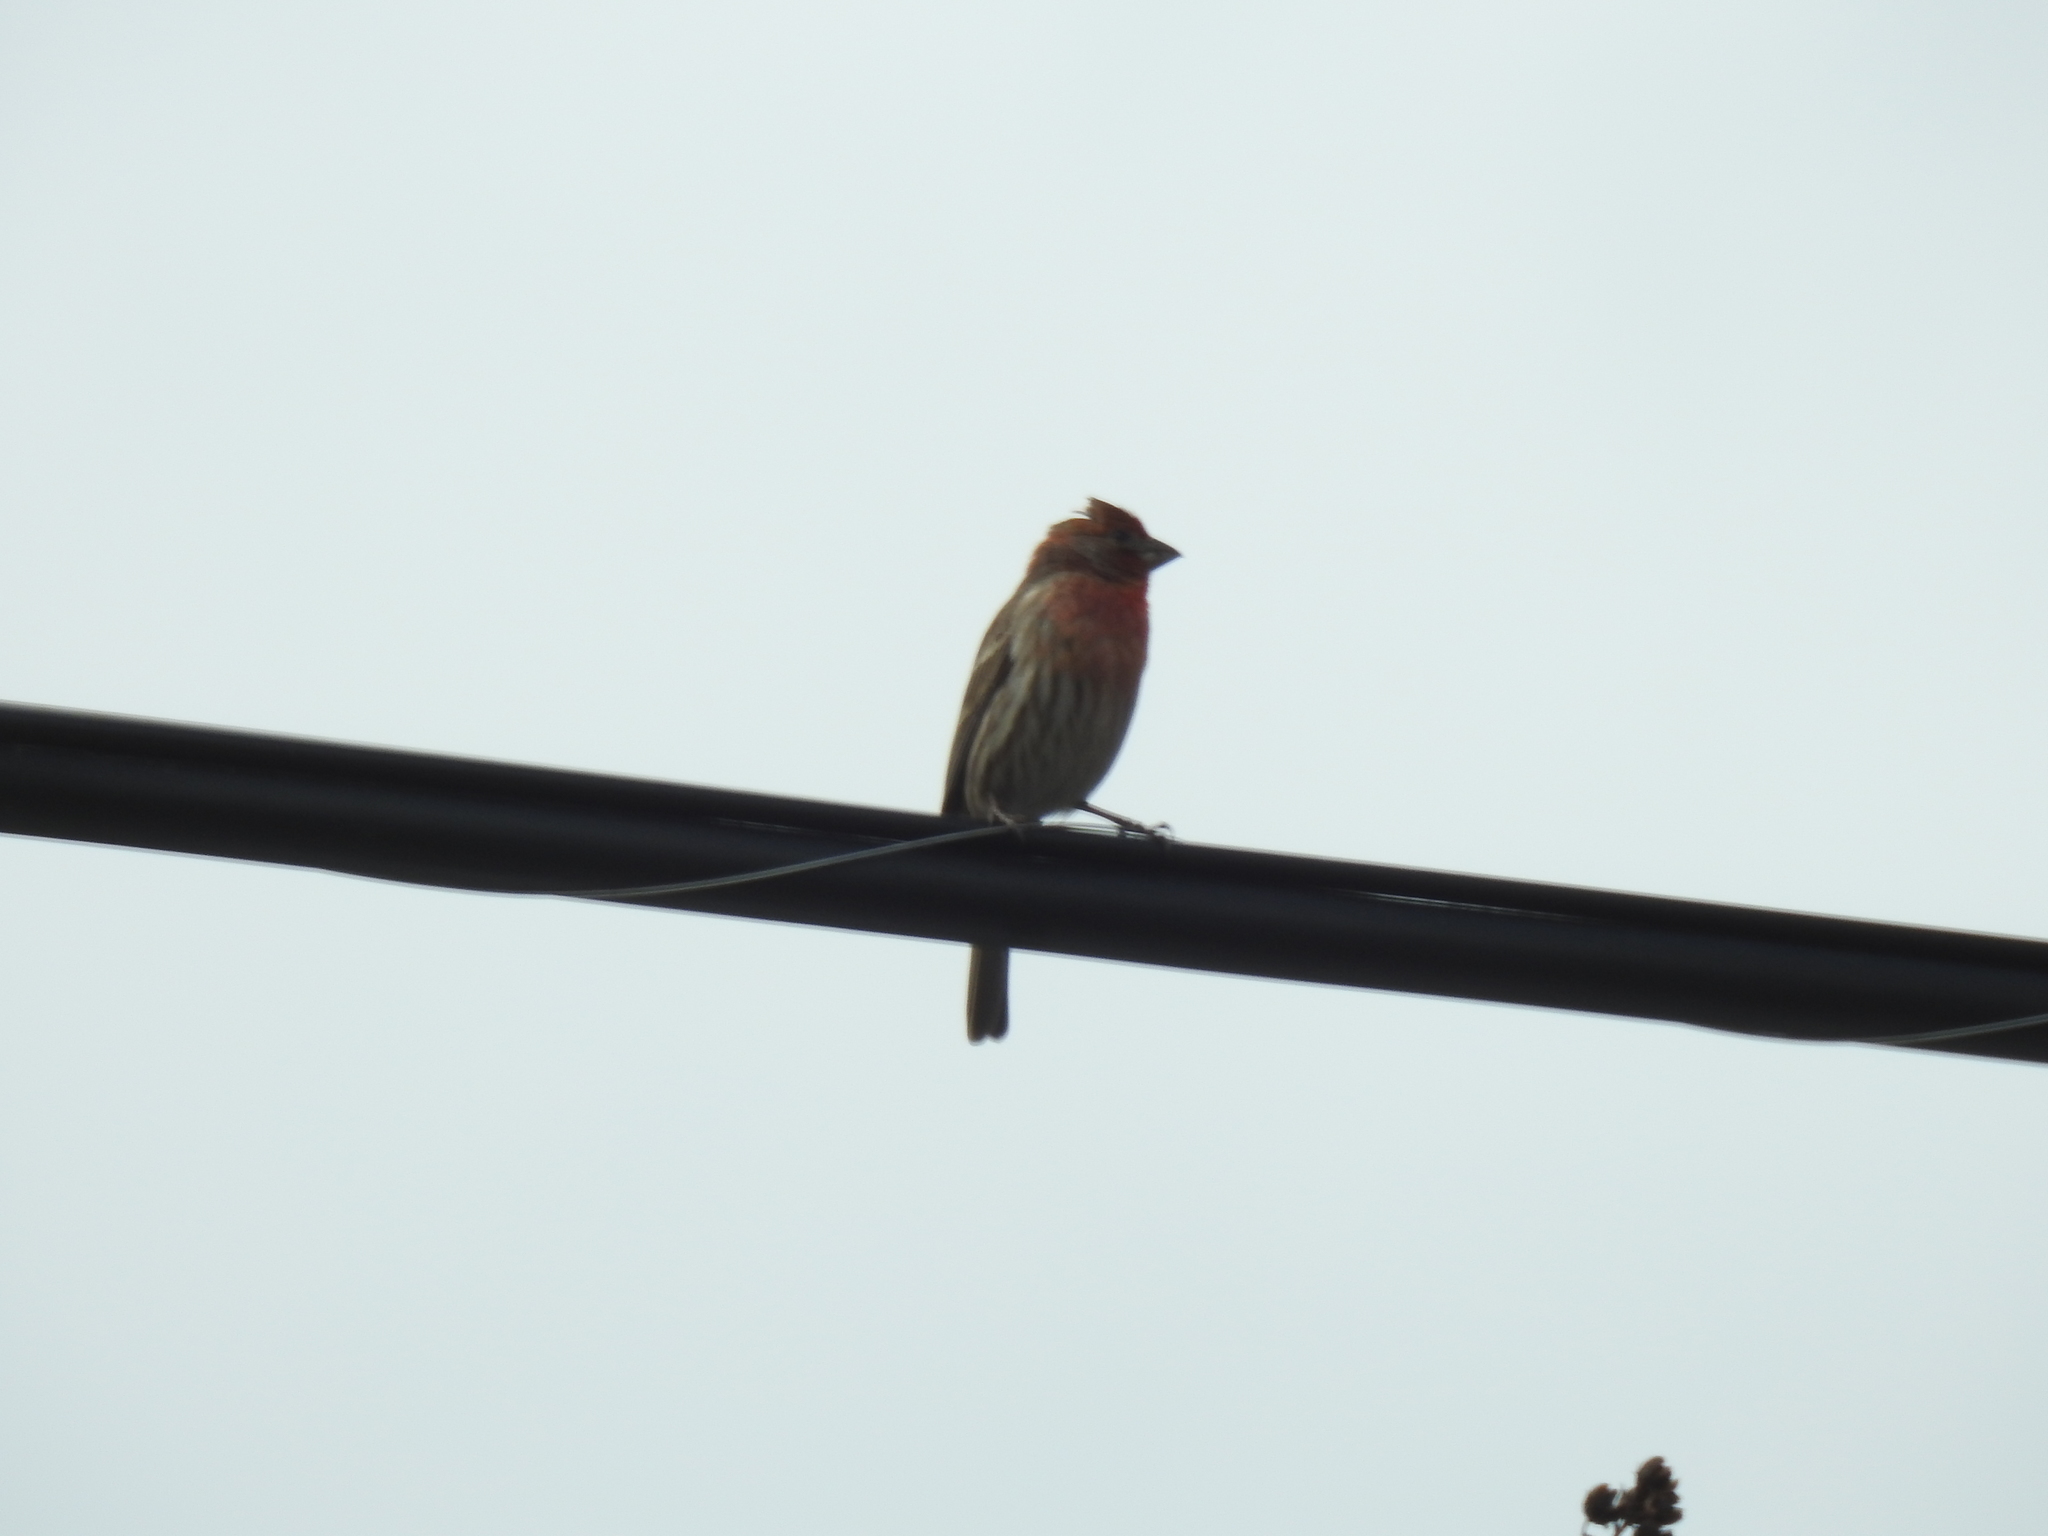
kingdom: Animalia
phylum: Chordata
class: Aves
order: Passeriformes
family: Fringillidae
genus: Haemorhous
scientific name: Haemorhous mexicanus
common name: House finch
